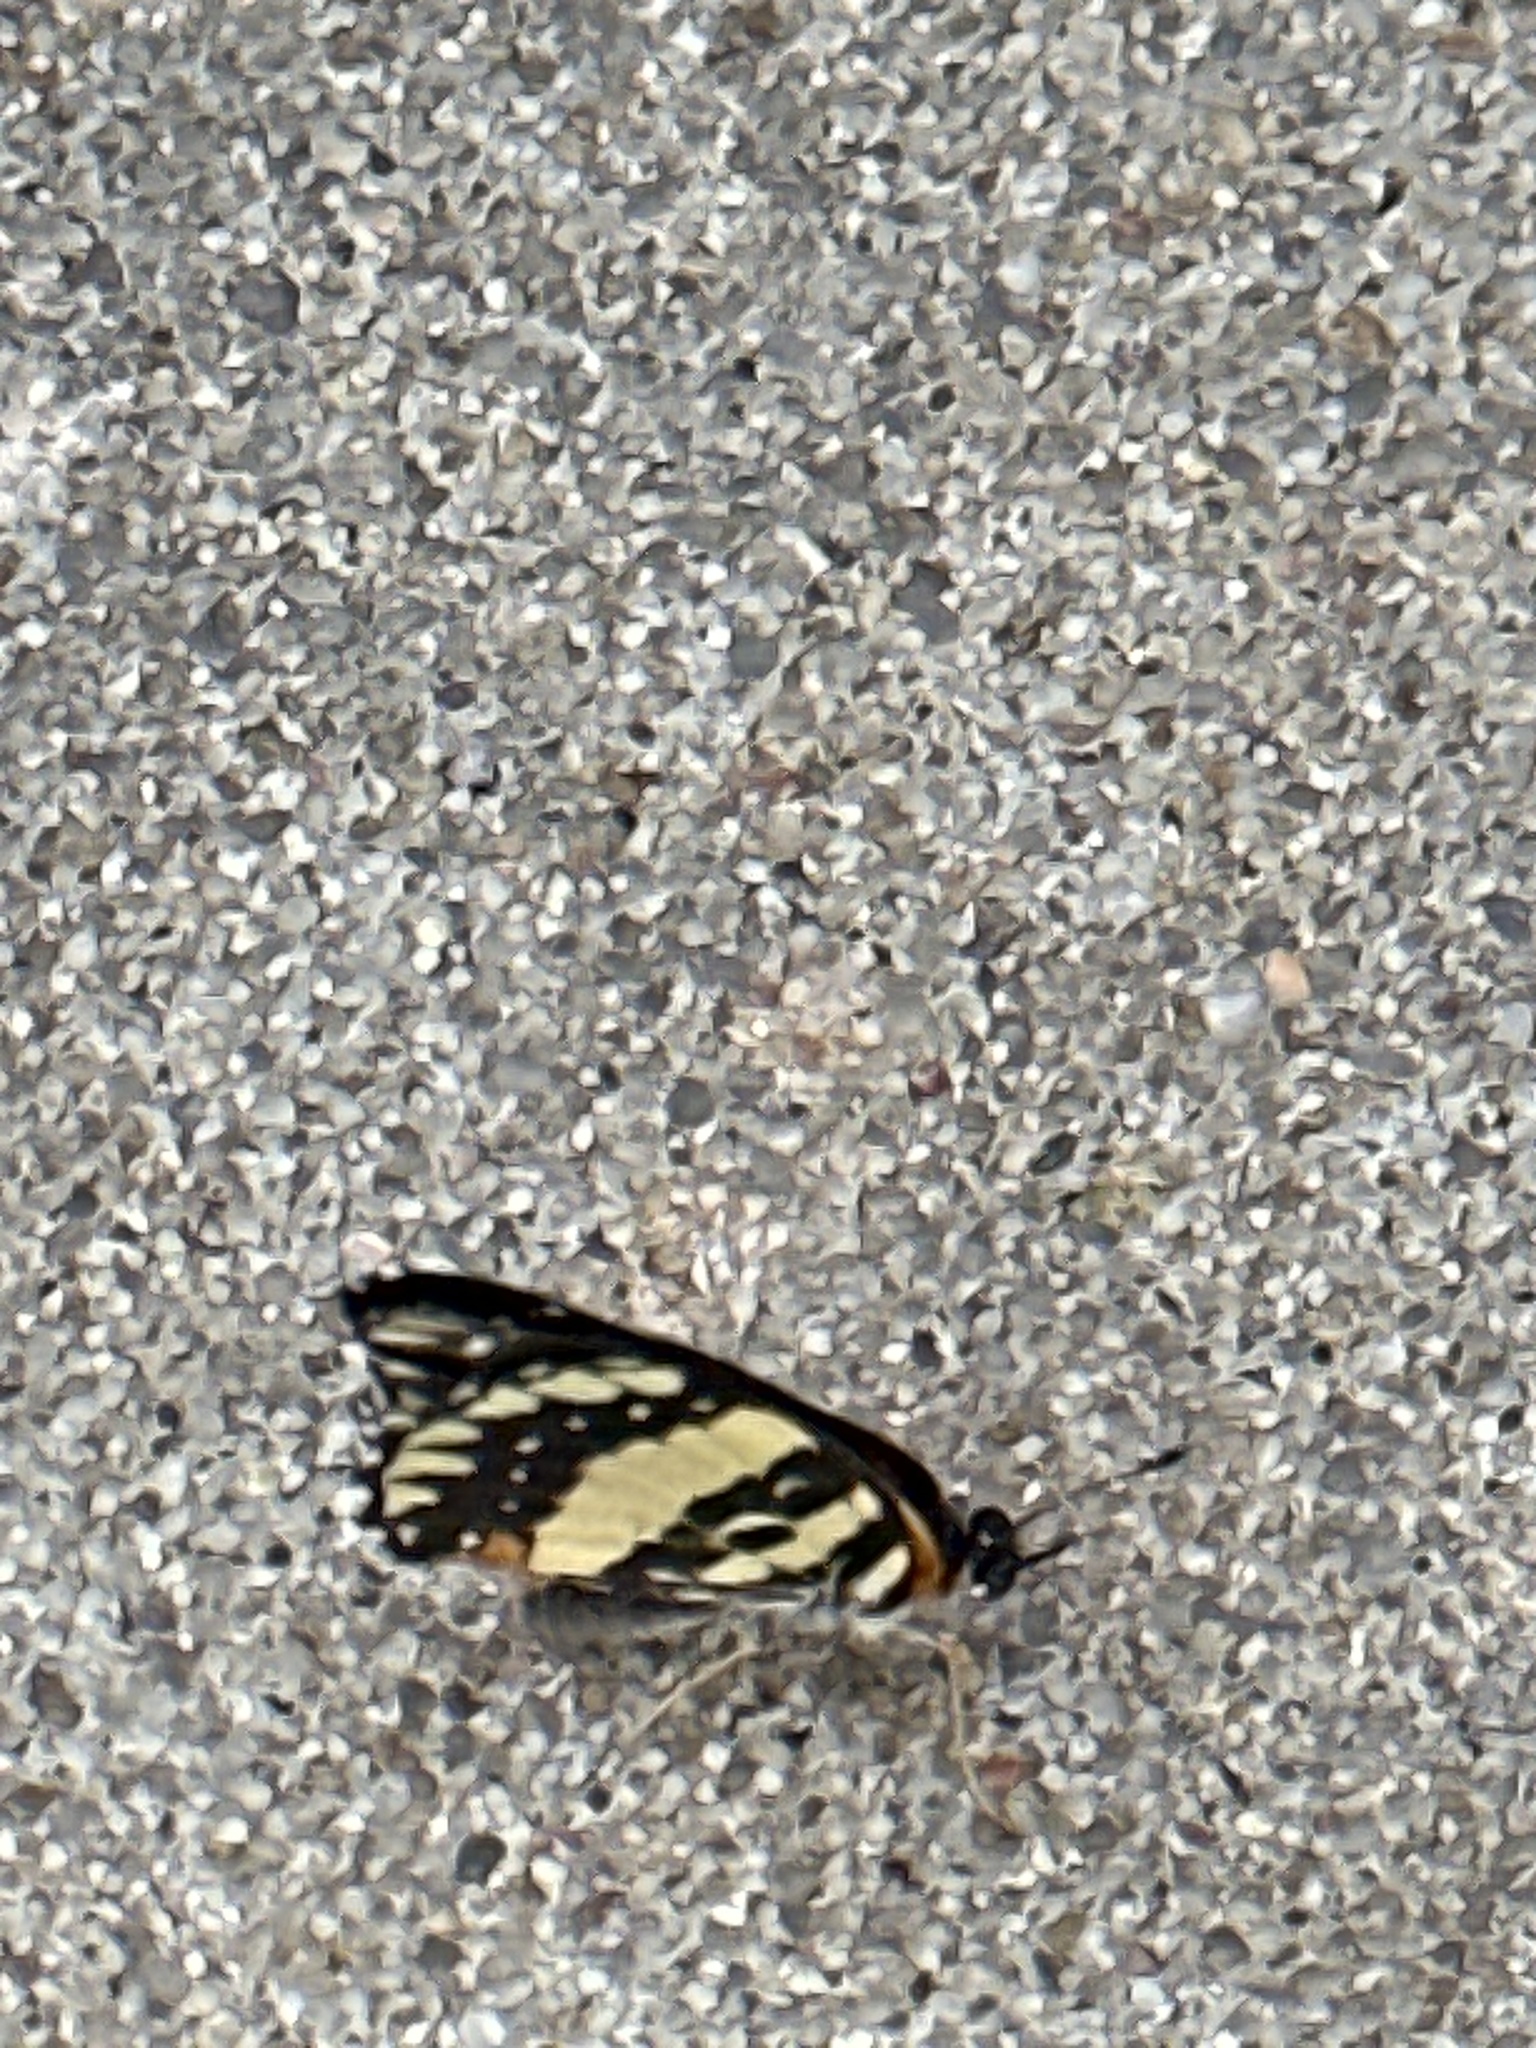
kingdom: Animalia
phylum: Arthropoda
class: Insecta
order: Lepidoptera
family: Nymphalidae
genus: Chlosyne
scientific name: Chlosyne lacinia
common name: Bordered patch
